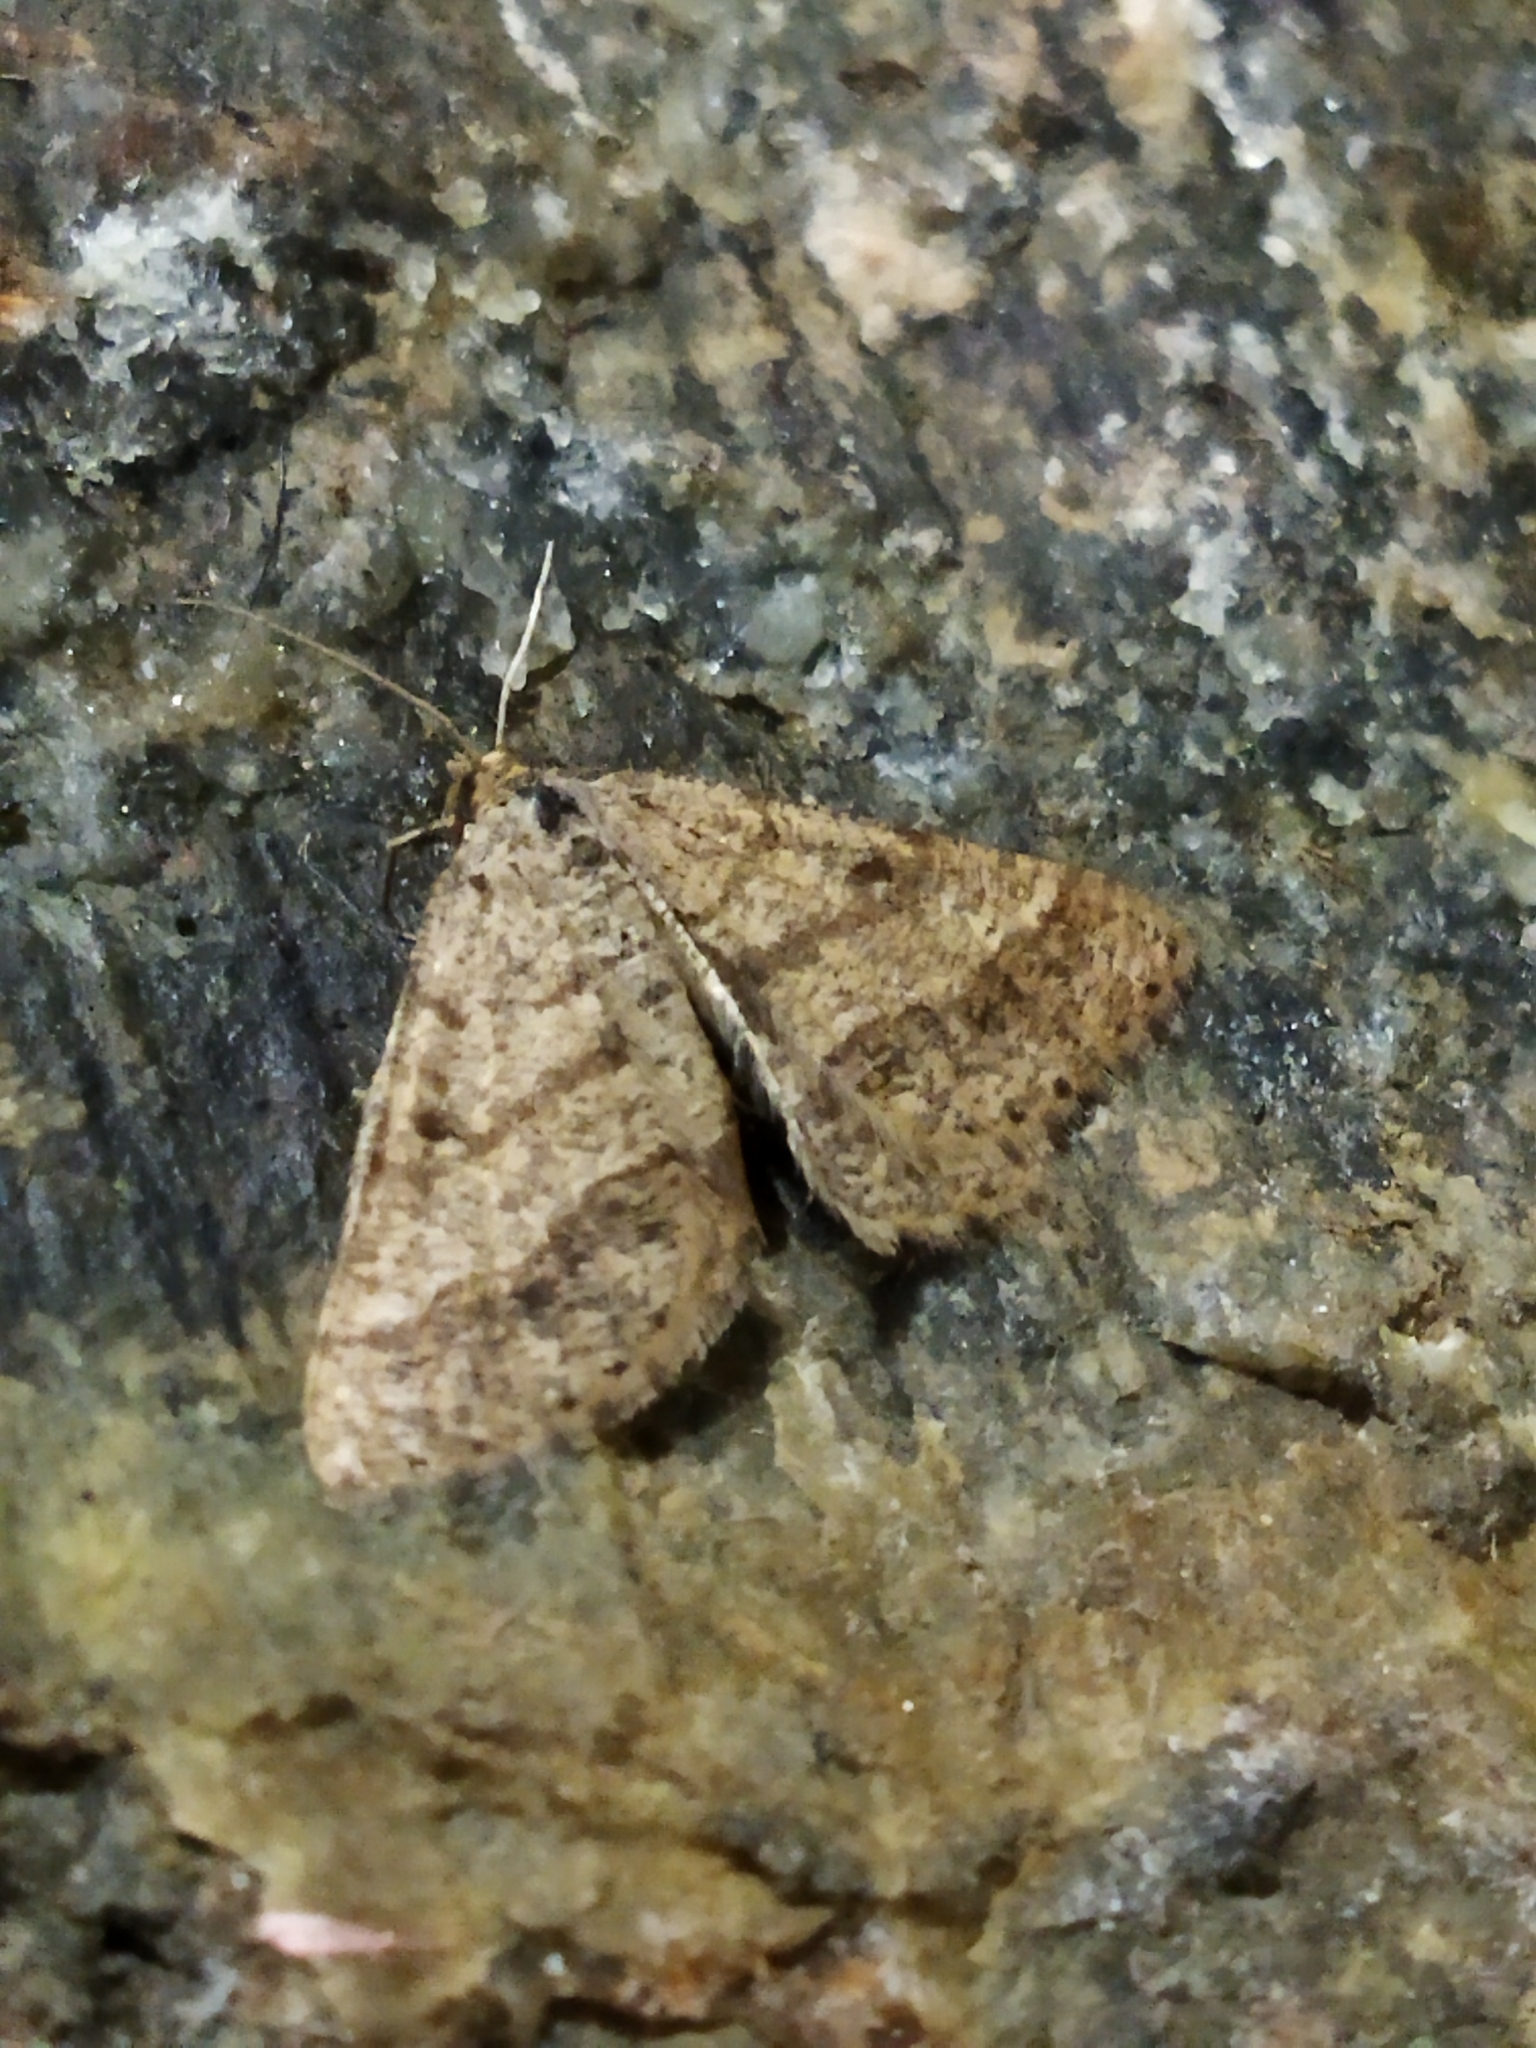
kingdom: Animalia
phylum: Arthropoda
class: Insecta
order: Lepidoptera
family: Geometridae
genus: Tephrina
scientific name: Tephrina murinaria
